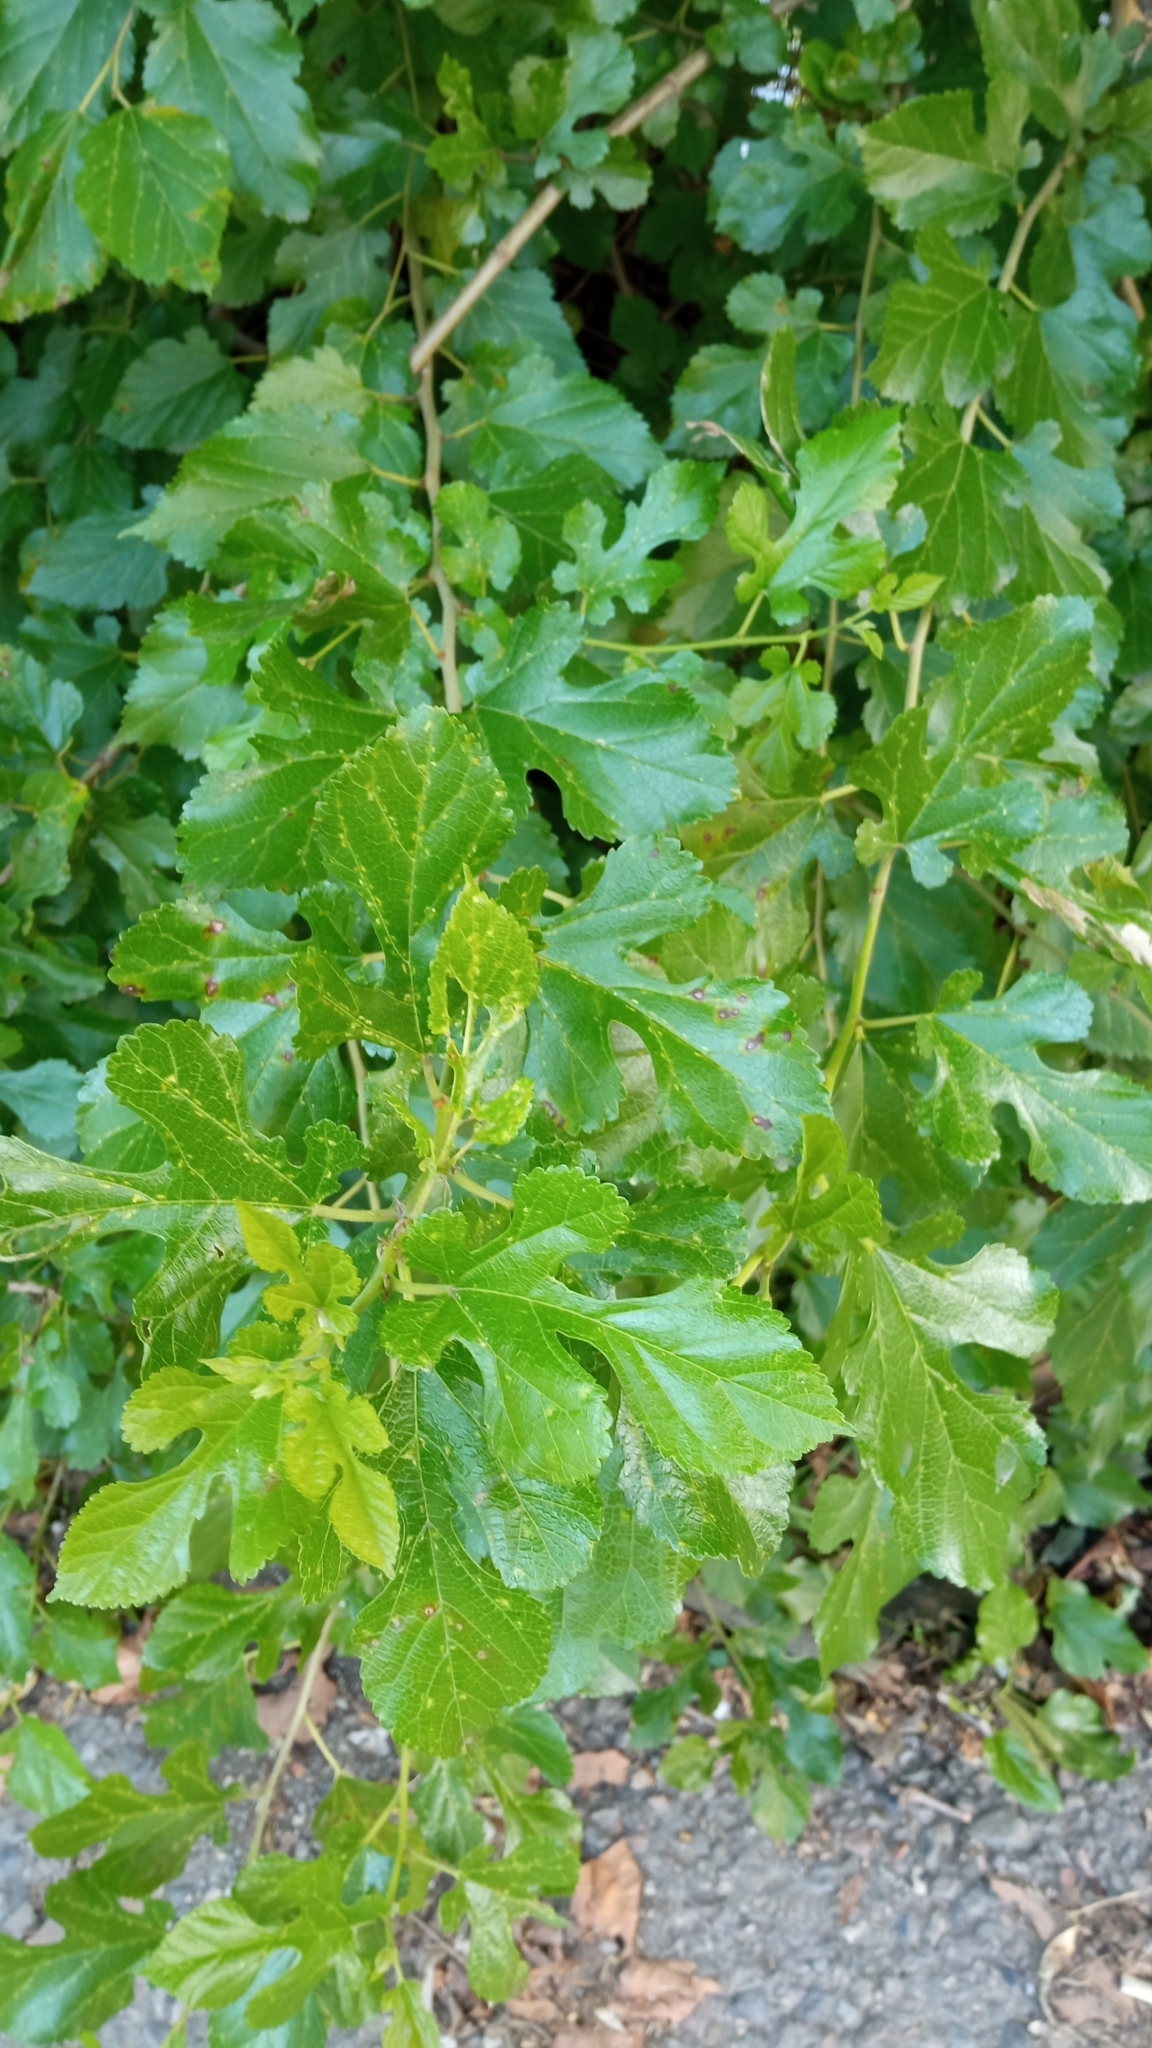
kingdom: Plantae
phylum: Tracheophyta
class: Magnoliopsida
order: Rosales
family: Moraceae
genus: Morus
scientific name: Morus alba
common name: White mulberry
